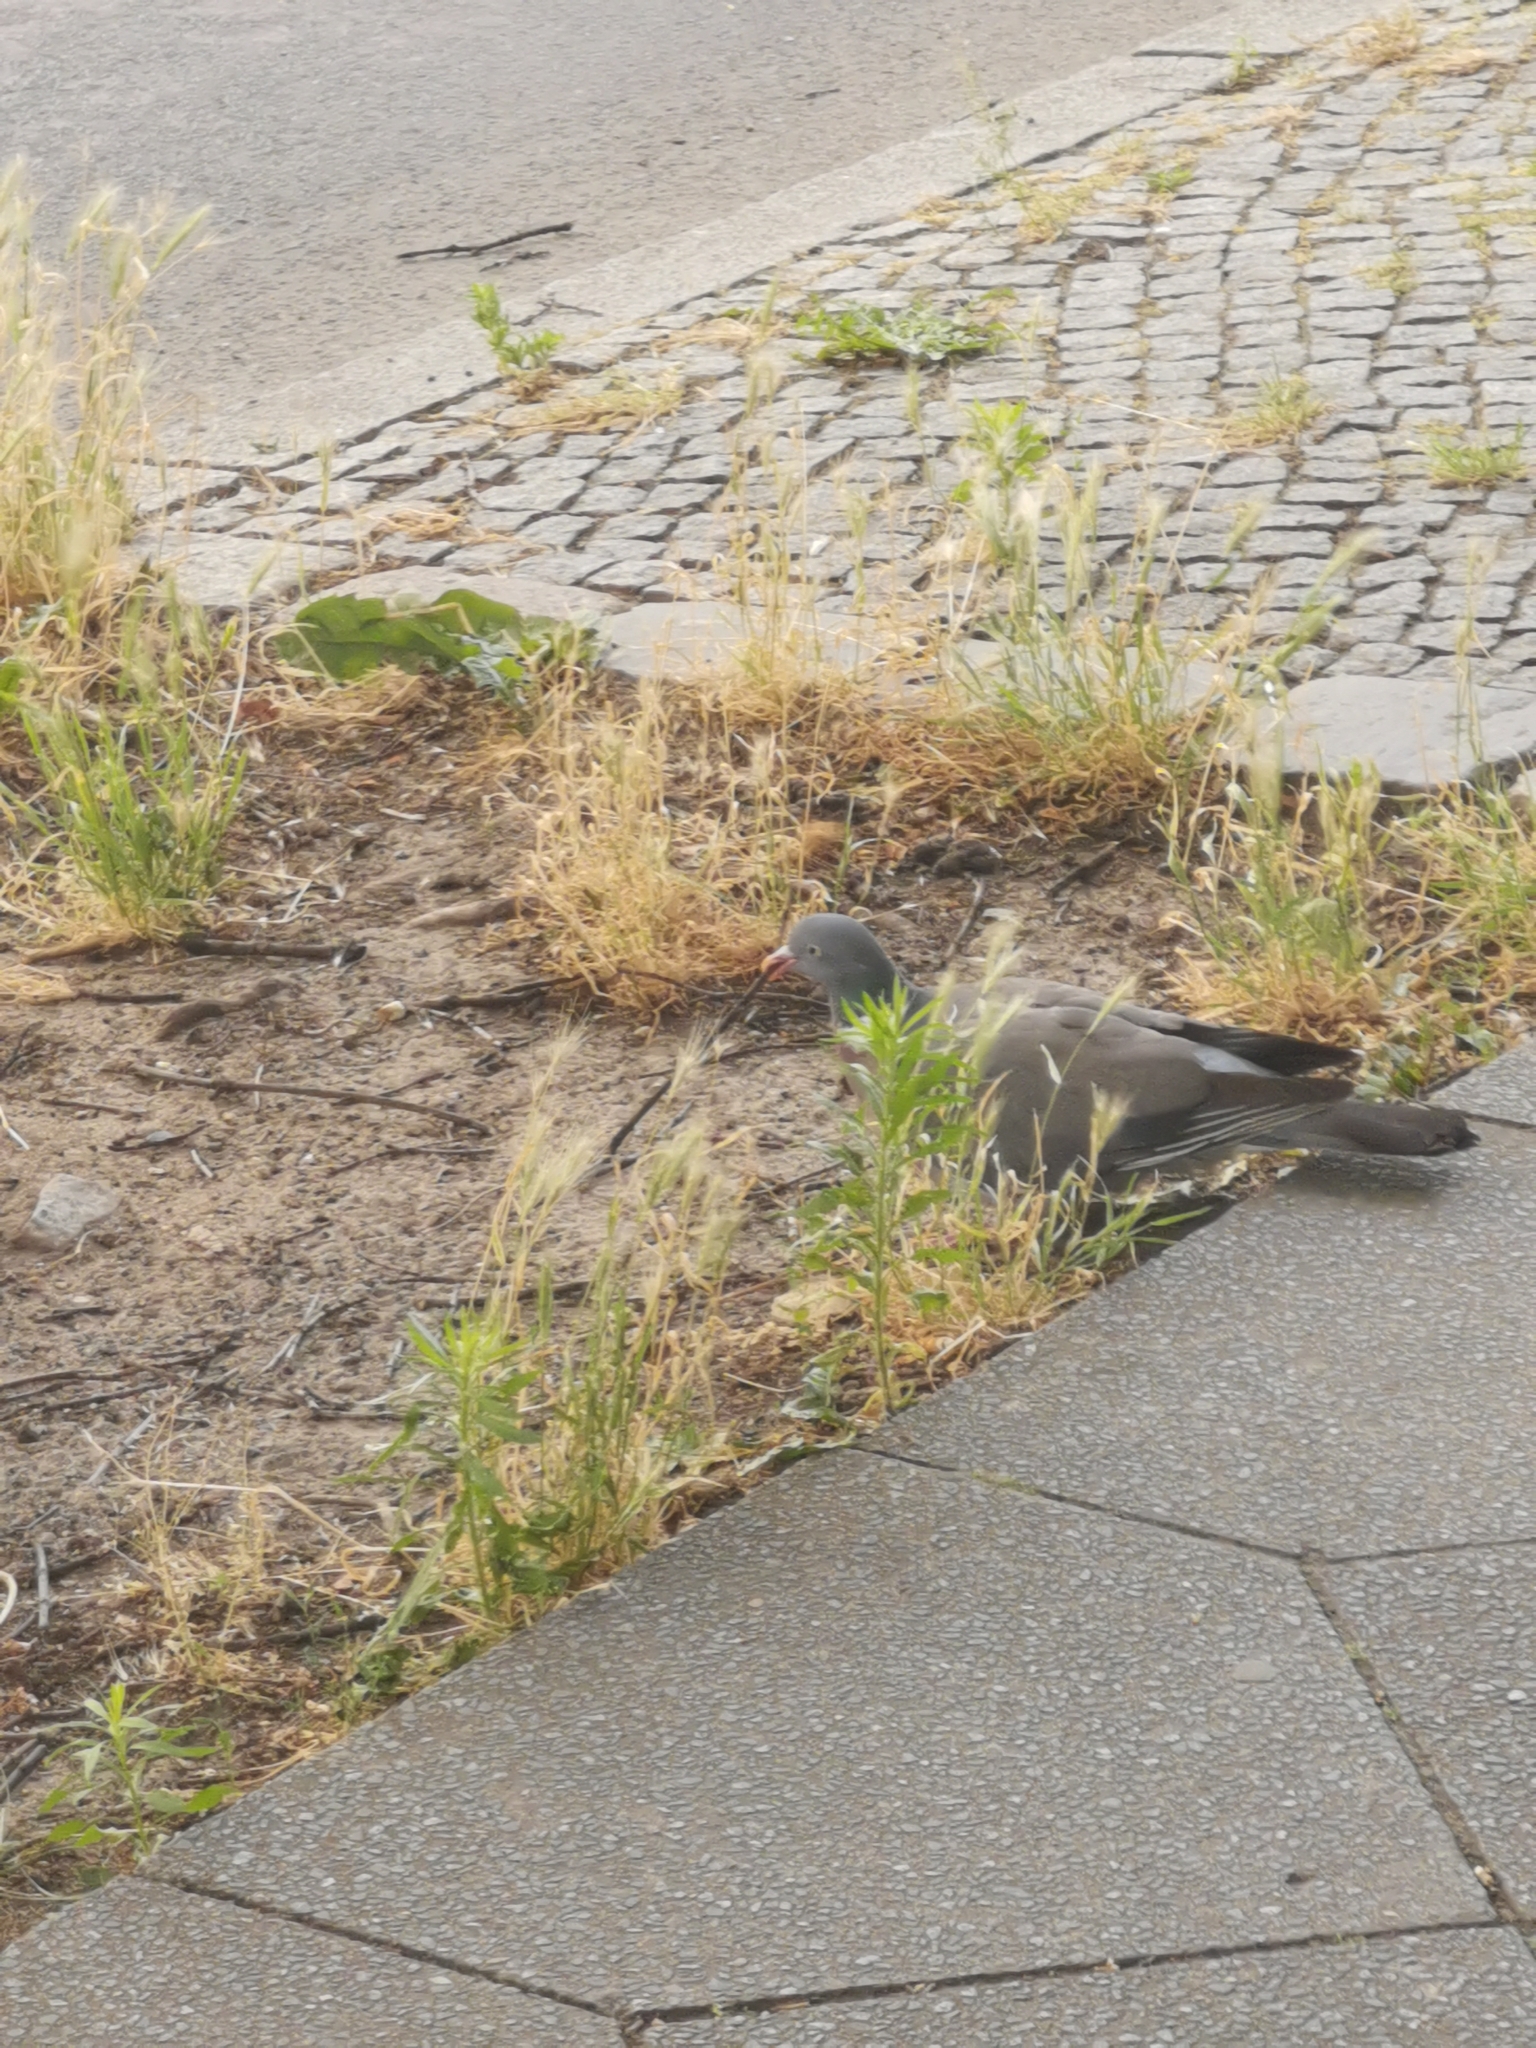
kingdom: Animalia
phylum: Chordata
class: Aves
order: Columbiformes
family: Columbidae
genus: Columba
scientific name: Columba palumbus
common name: Common wood pigeon
